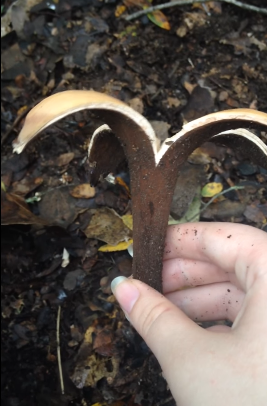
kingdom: Fungi
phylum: Ascomycota
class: Pezizomycetes
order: Pezizales
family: Chorioactidaceae
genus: Chorioactis
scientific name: Chorioactis geaster
